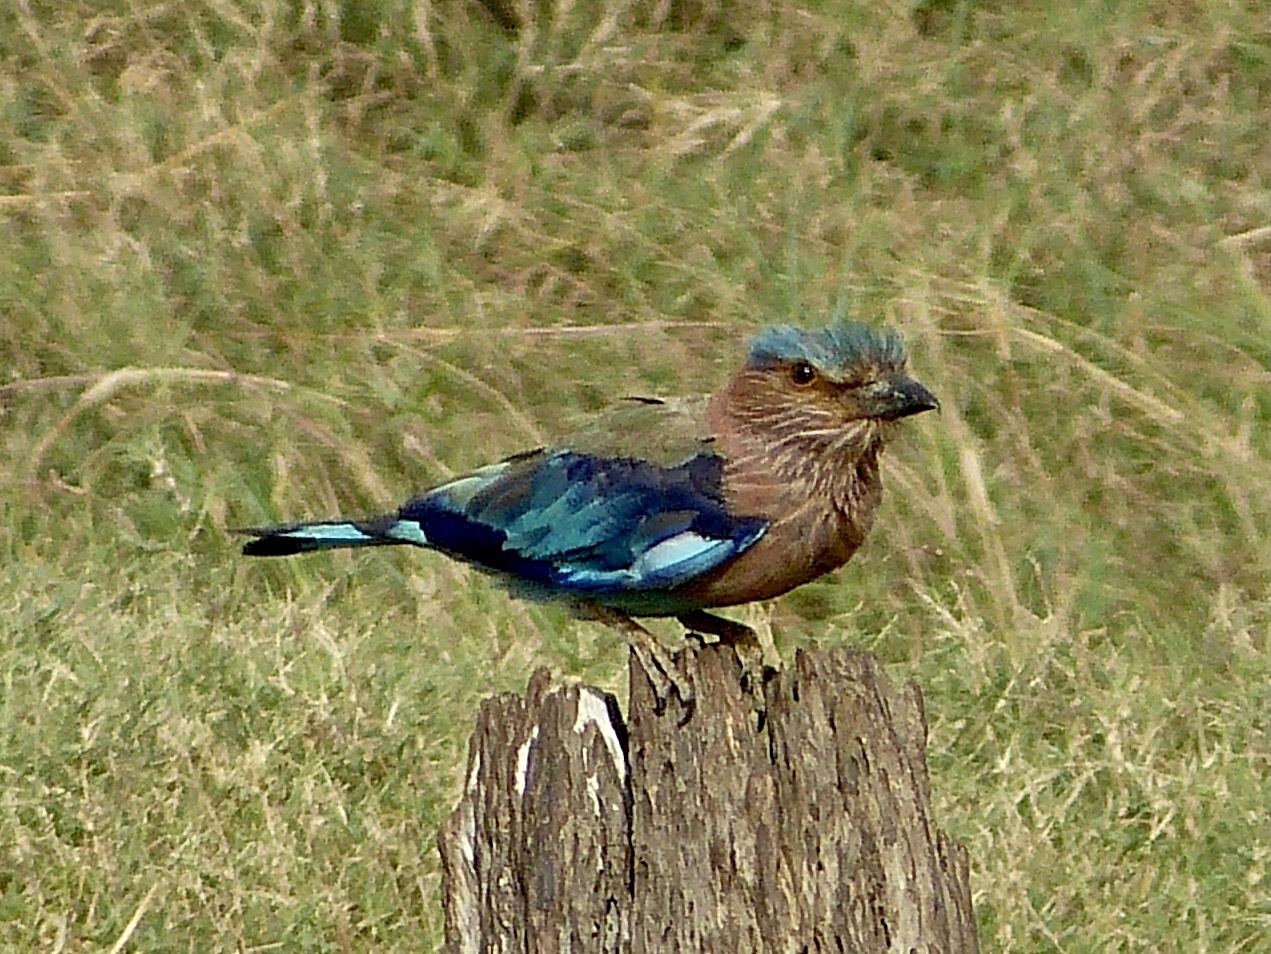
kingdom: Animalia
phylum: Chordata
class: Aves
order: Coraciiformes
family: Coraciidae
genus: Coracias
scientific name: Coracias benghalensis
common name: Indian roller
